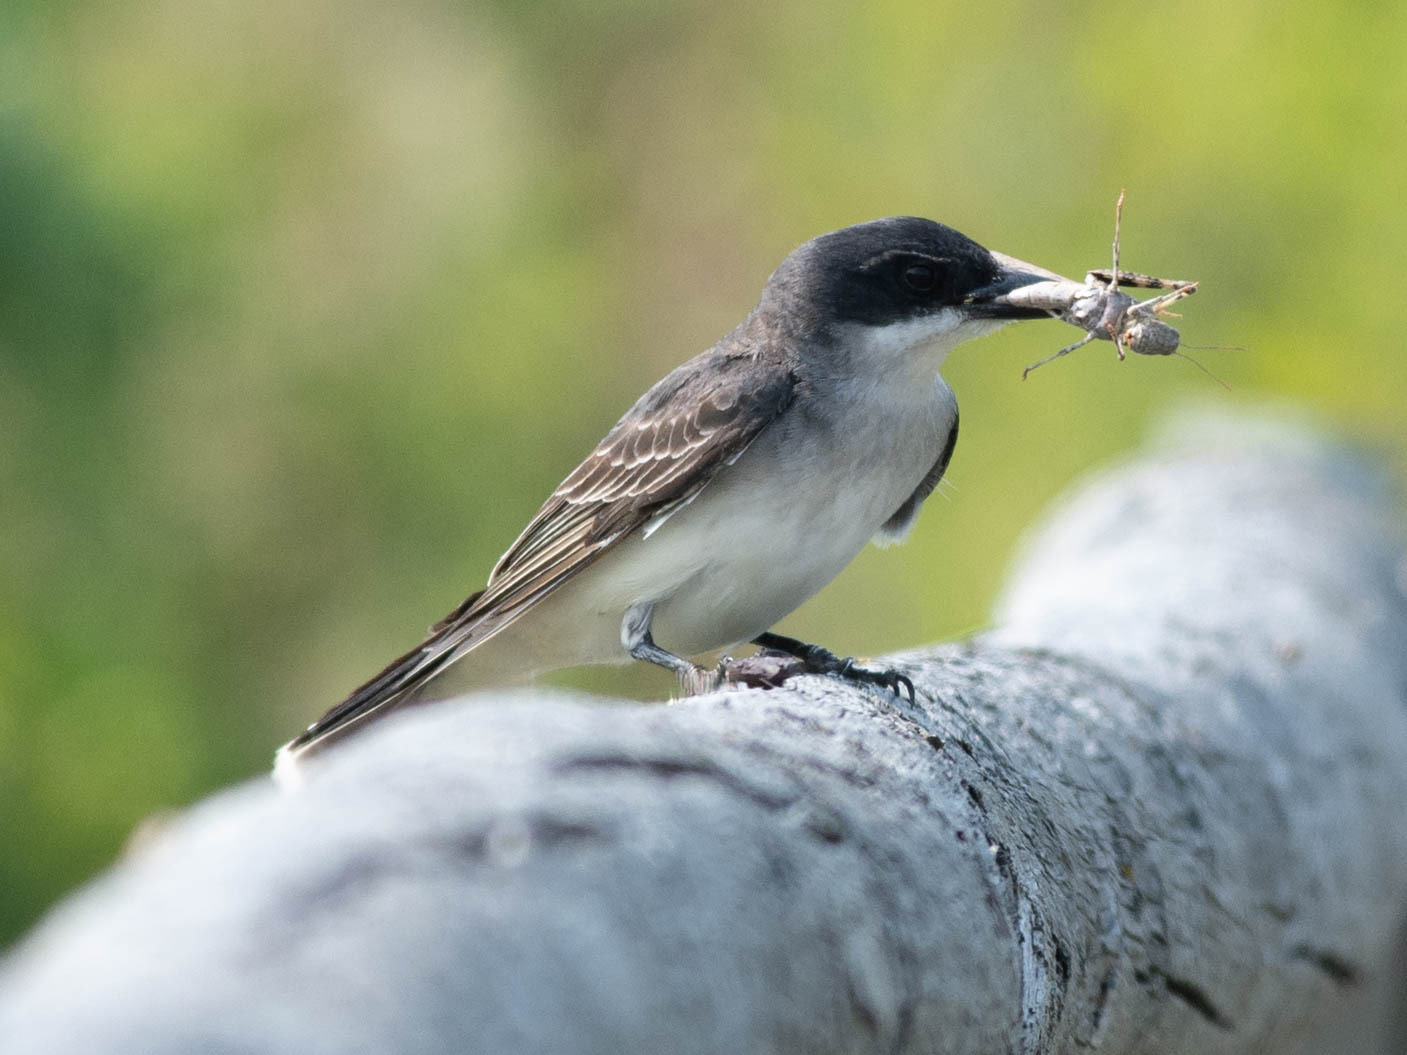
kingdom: Animalia
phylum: Chordata
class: Aves
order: Passeriformes
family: Tyrannidae
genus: Tyrannus
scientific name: Tyrannus tyrannus
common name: Eastern kingbird
